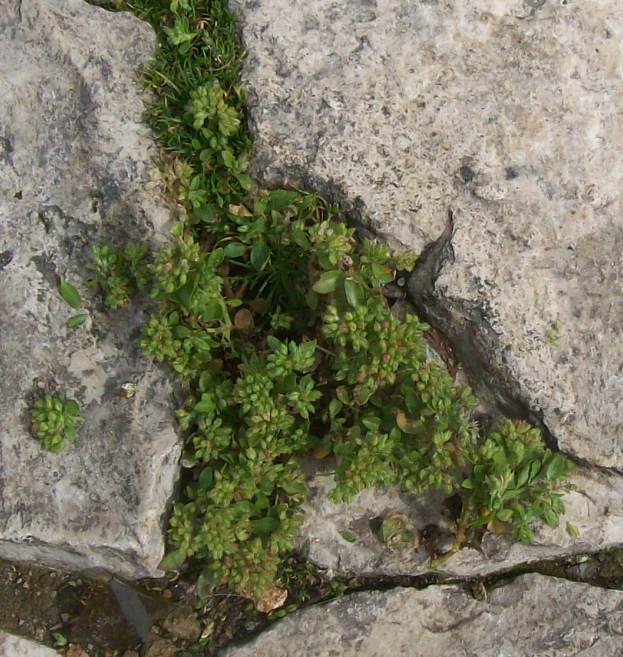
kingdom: Plantae
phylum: Tracheophyta
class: Magnoliopsida
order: Caryophyllales
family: Caryophyllaceae
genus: Polycarpon
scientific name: Polycarpon tetraphyllum
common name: Four-leaved all-seed
